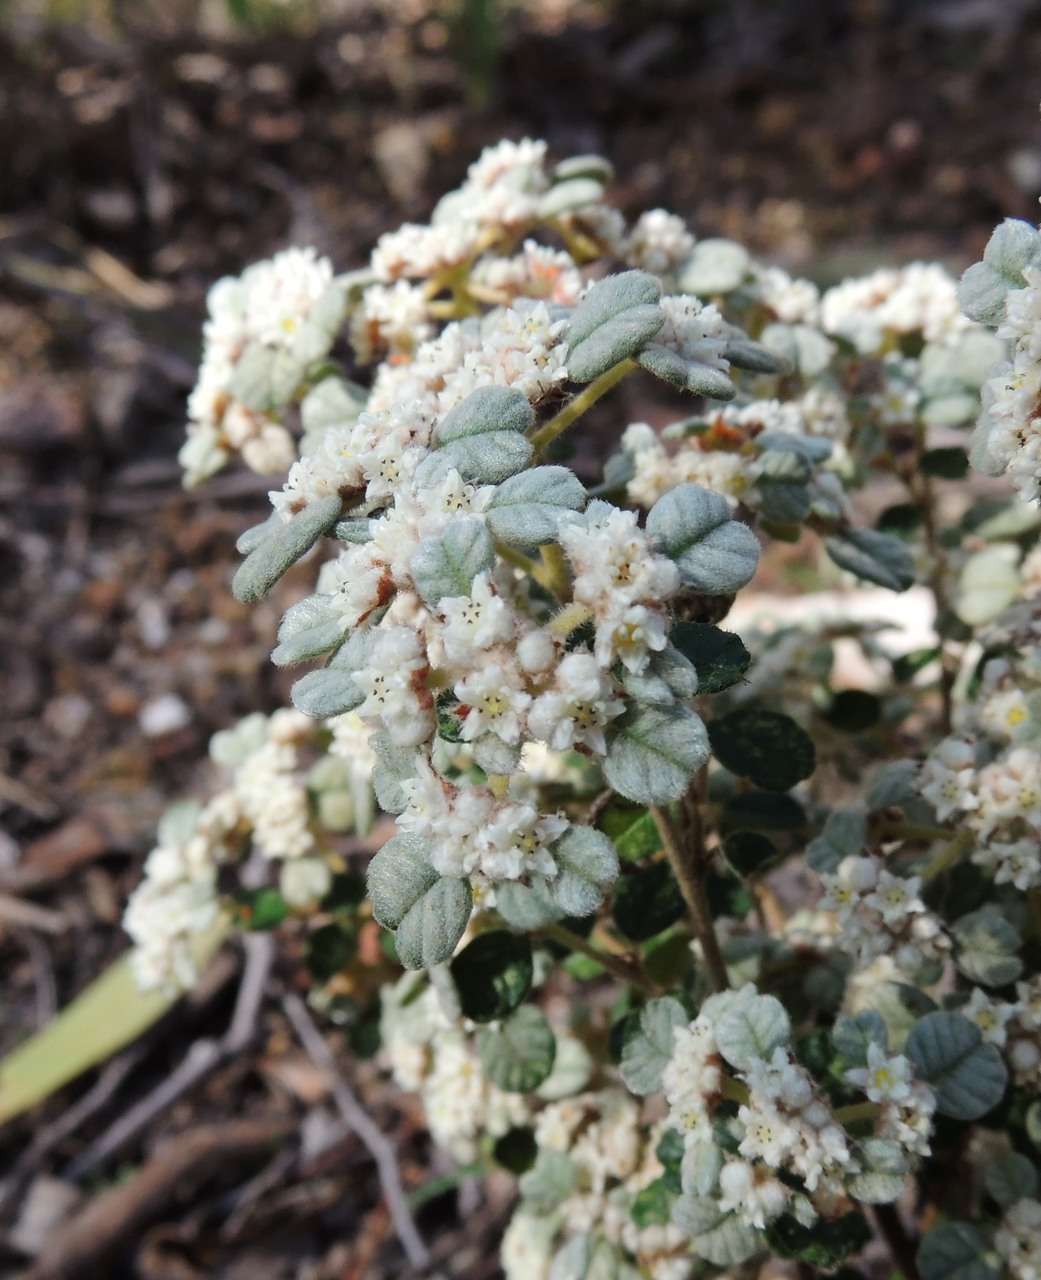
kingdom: Plantae
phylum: Tracheophyta
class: Magnoliopsida
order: Rosales
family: Rhamnaceae
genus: Spyridium
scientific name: Spyridium parvifolium
